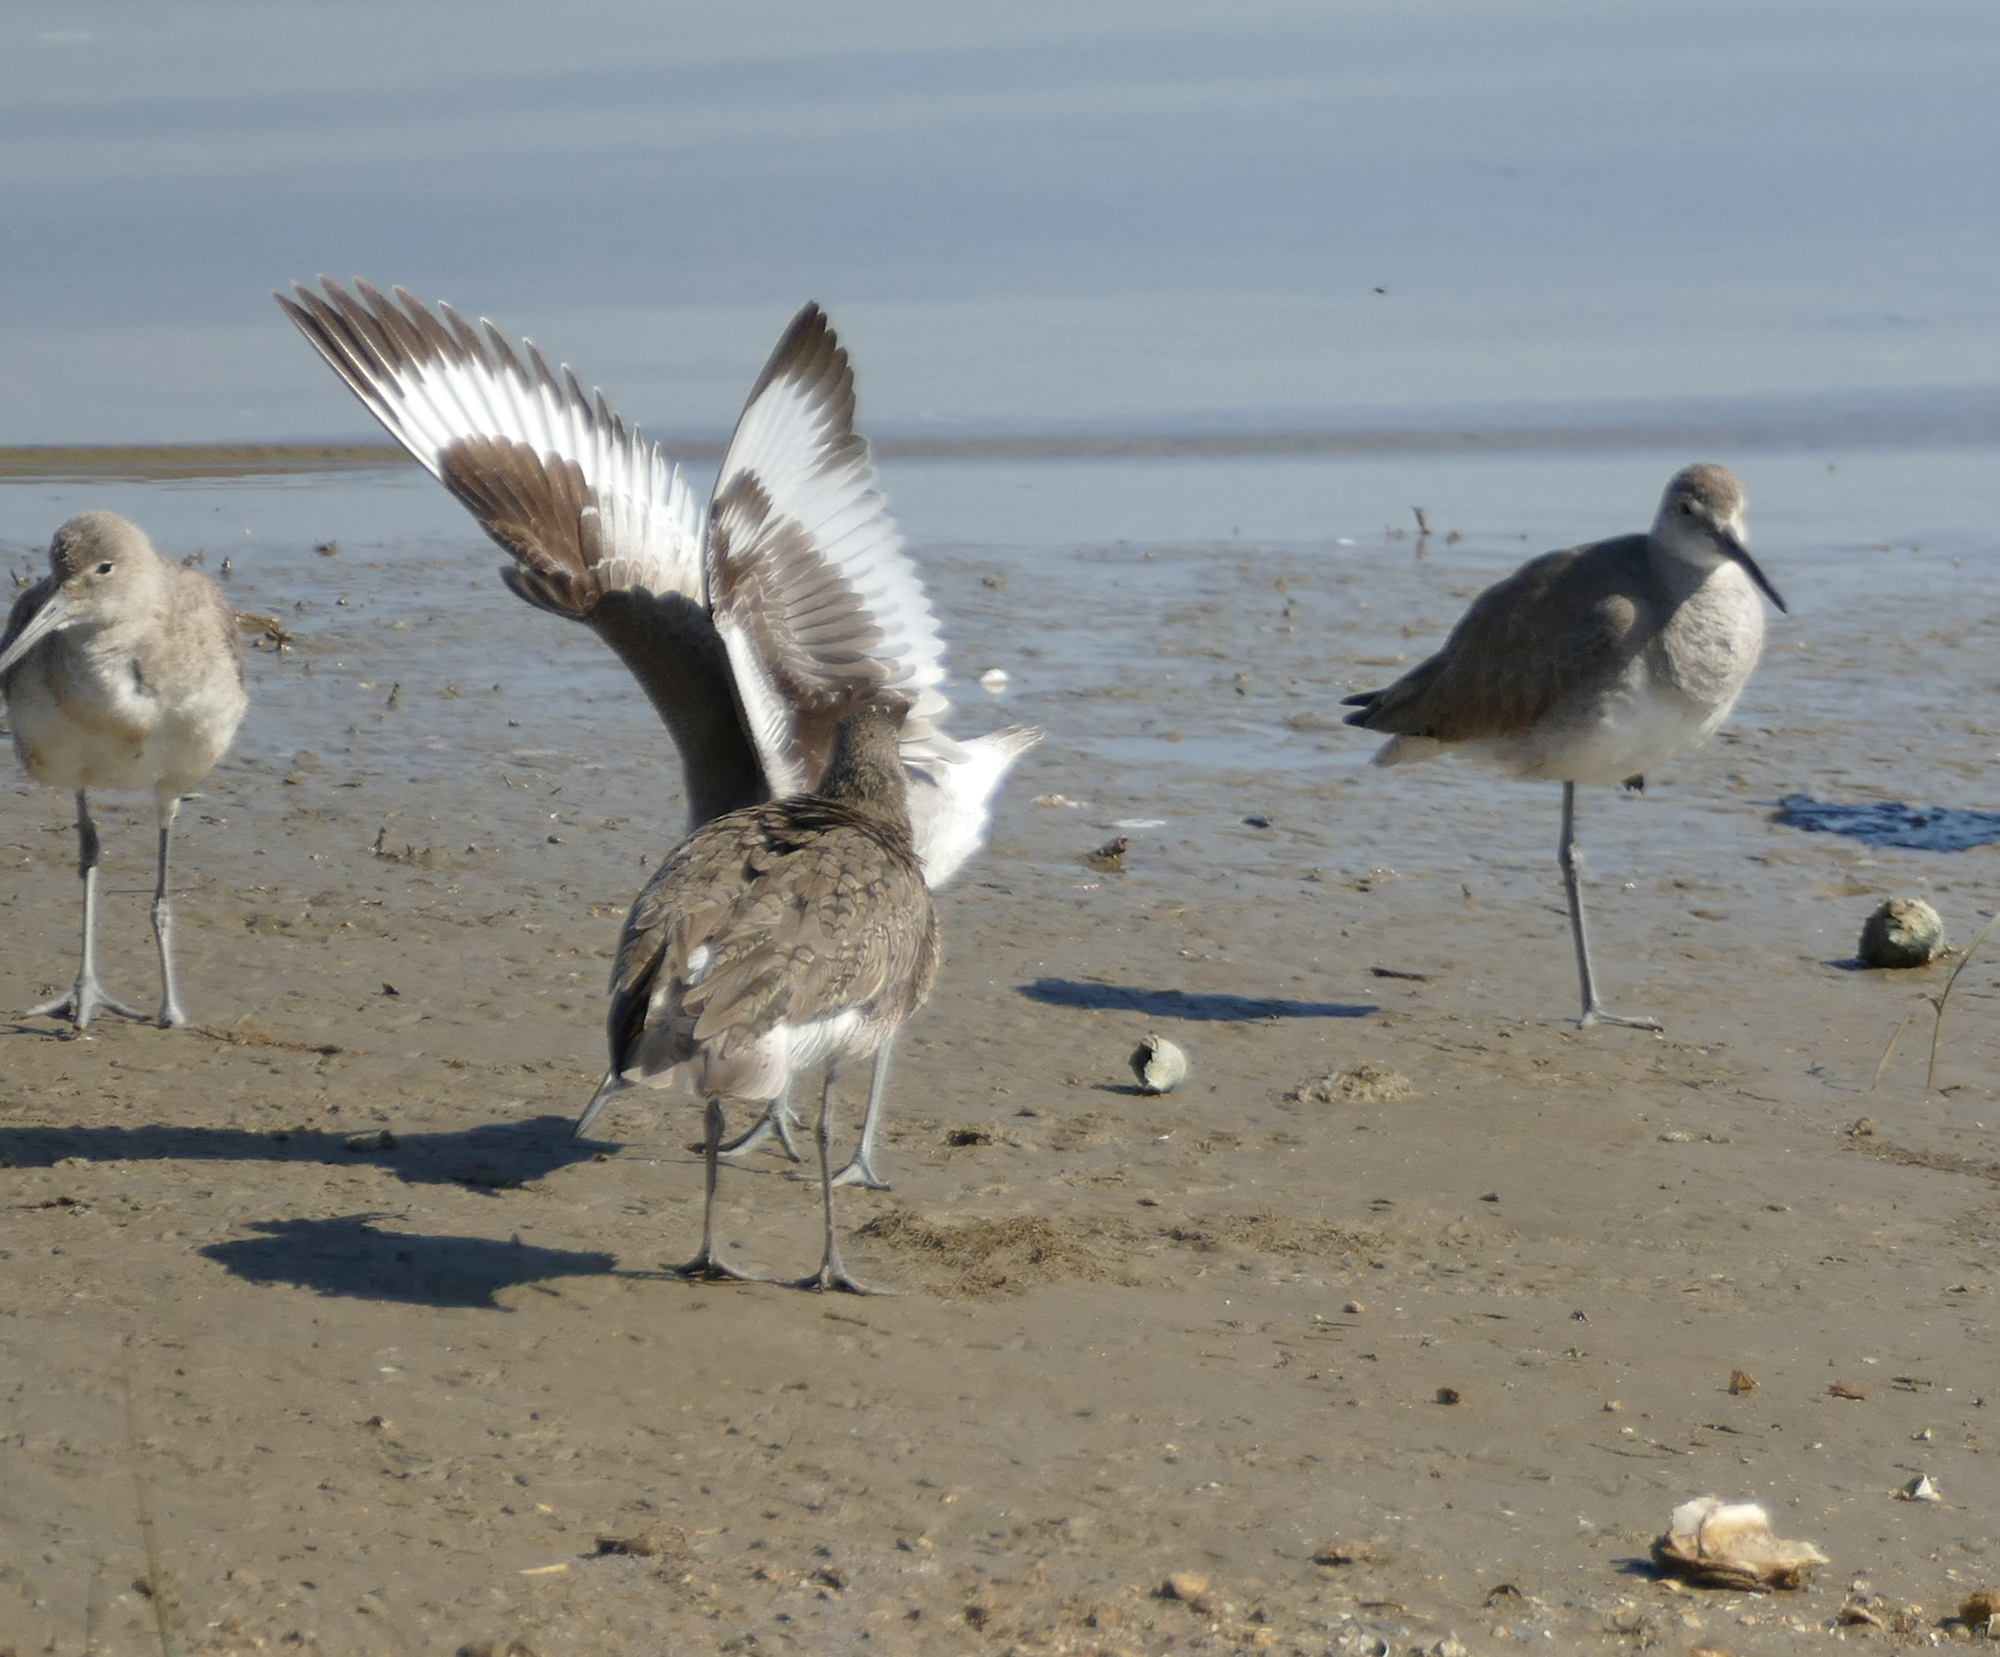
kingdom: Animalia
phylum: Chordata
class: Aves
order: Charadriiformes
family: Scolopacidae
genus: Tringa
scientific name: Tringa semipalmata
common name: Willet
